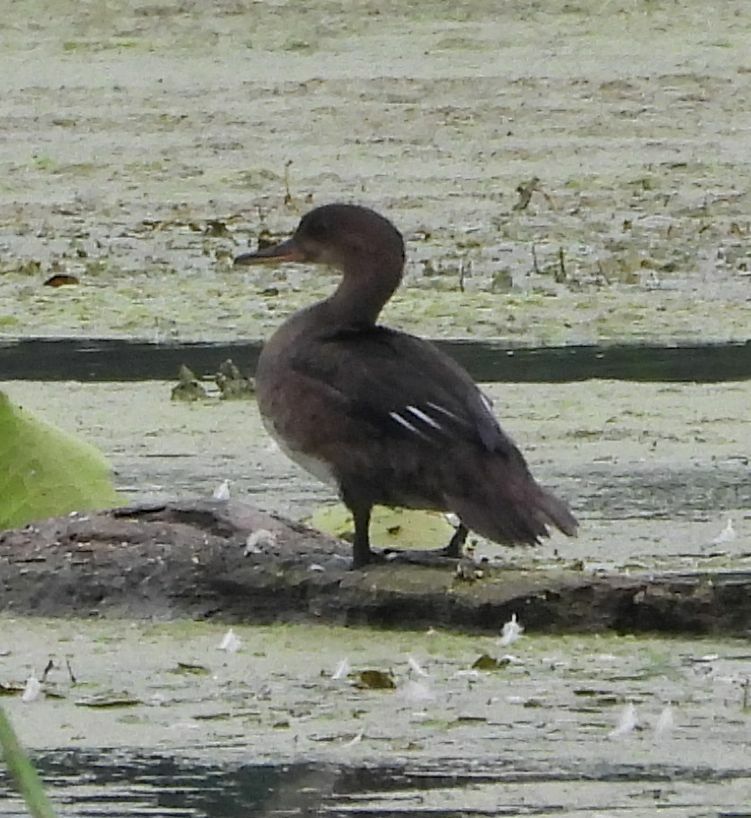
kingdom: Animalia
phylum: Chordata
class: Aves
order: Anseriformes
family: Anatidae
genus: Lophodytes
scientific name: Lophodytes cucullatus
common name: Hooded merganser
